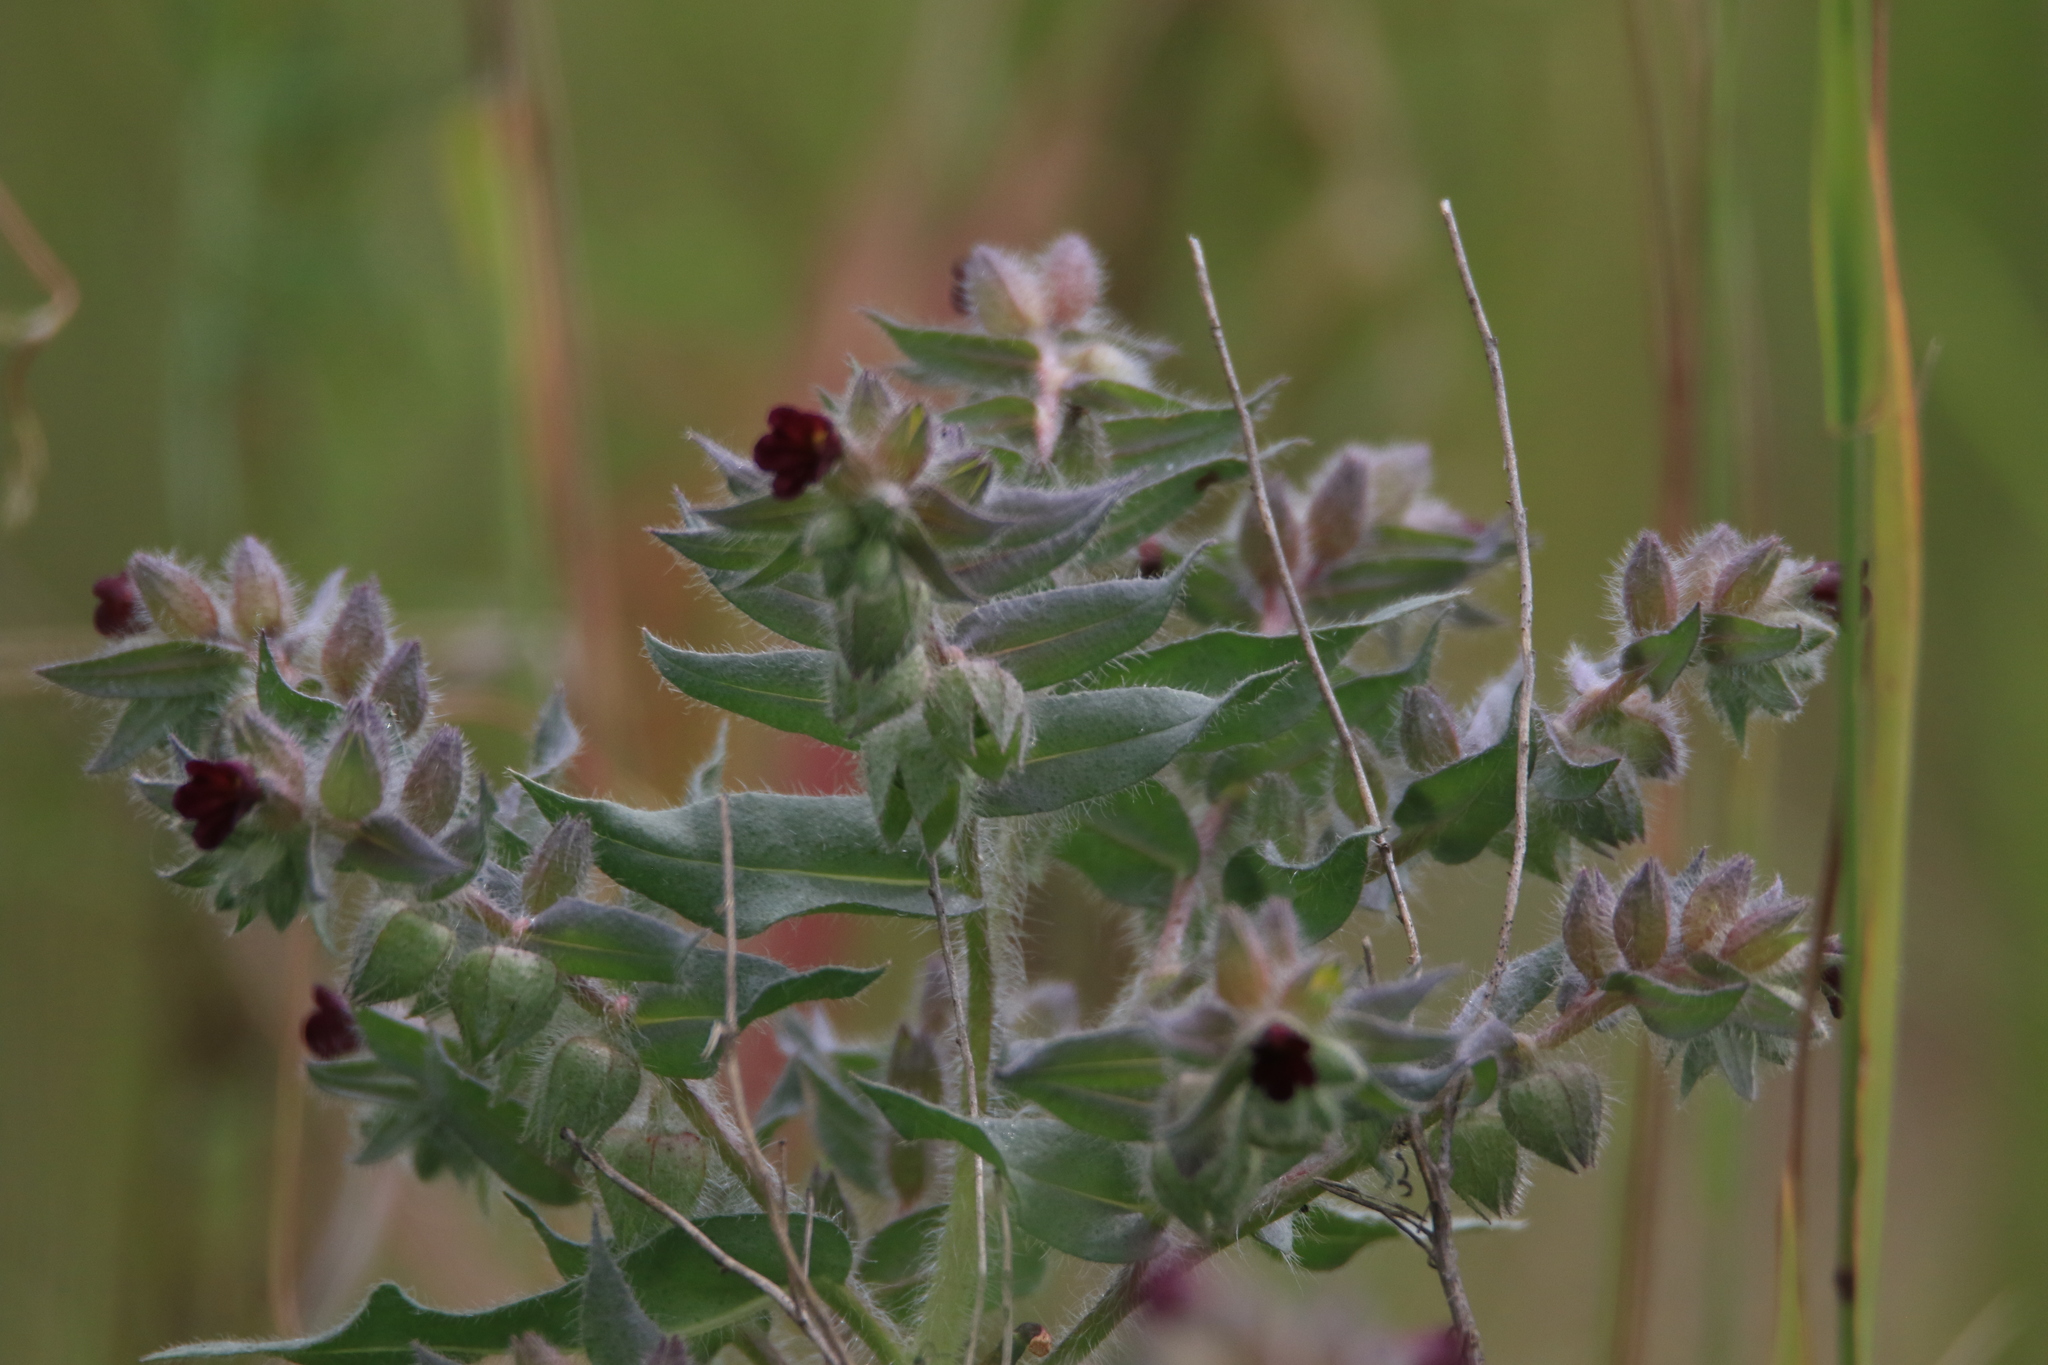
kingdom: Plantae
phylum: Tracheophyta
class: Magnoliopsida
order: Boraginales
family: Boraginaceae
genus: Nonea
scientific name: Nonea pulla
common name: Brown nonea
